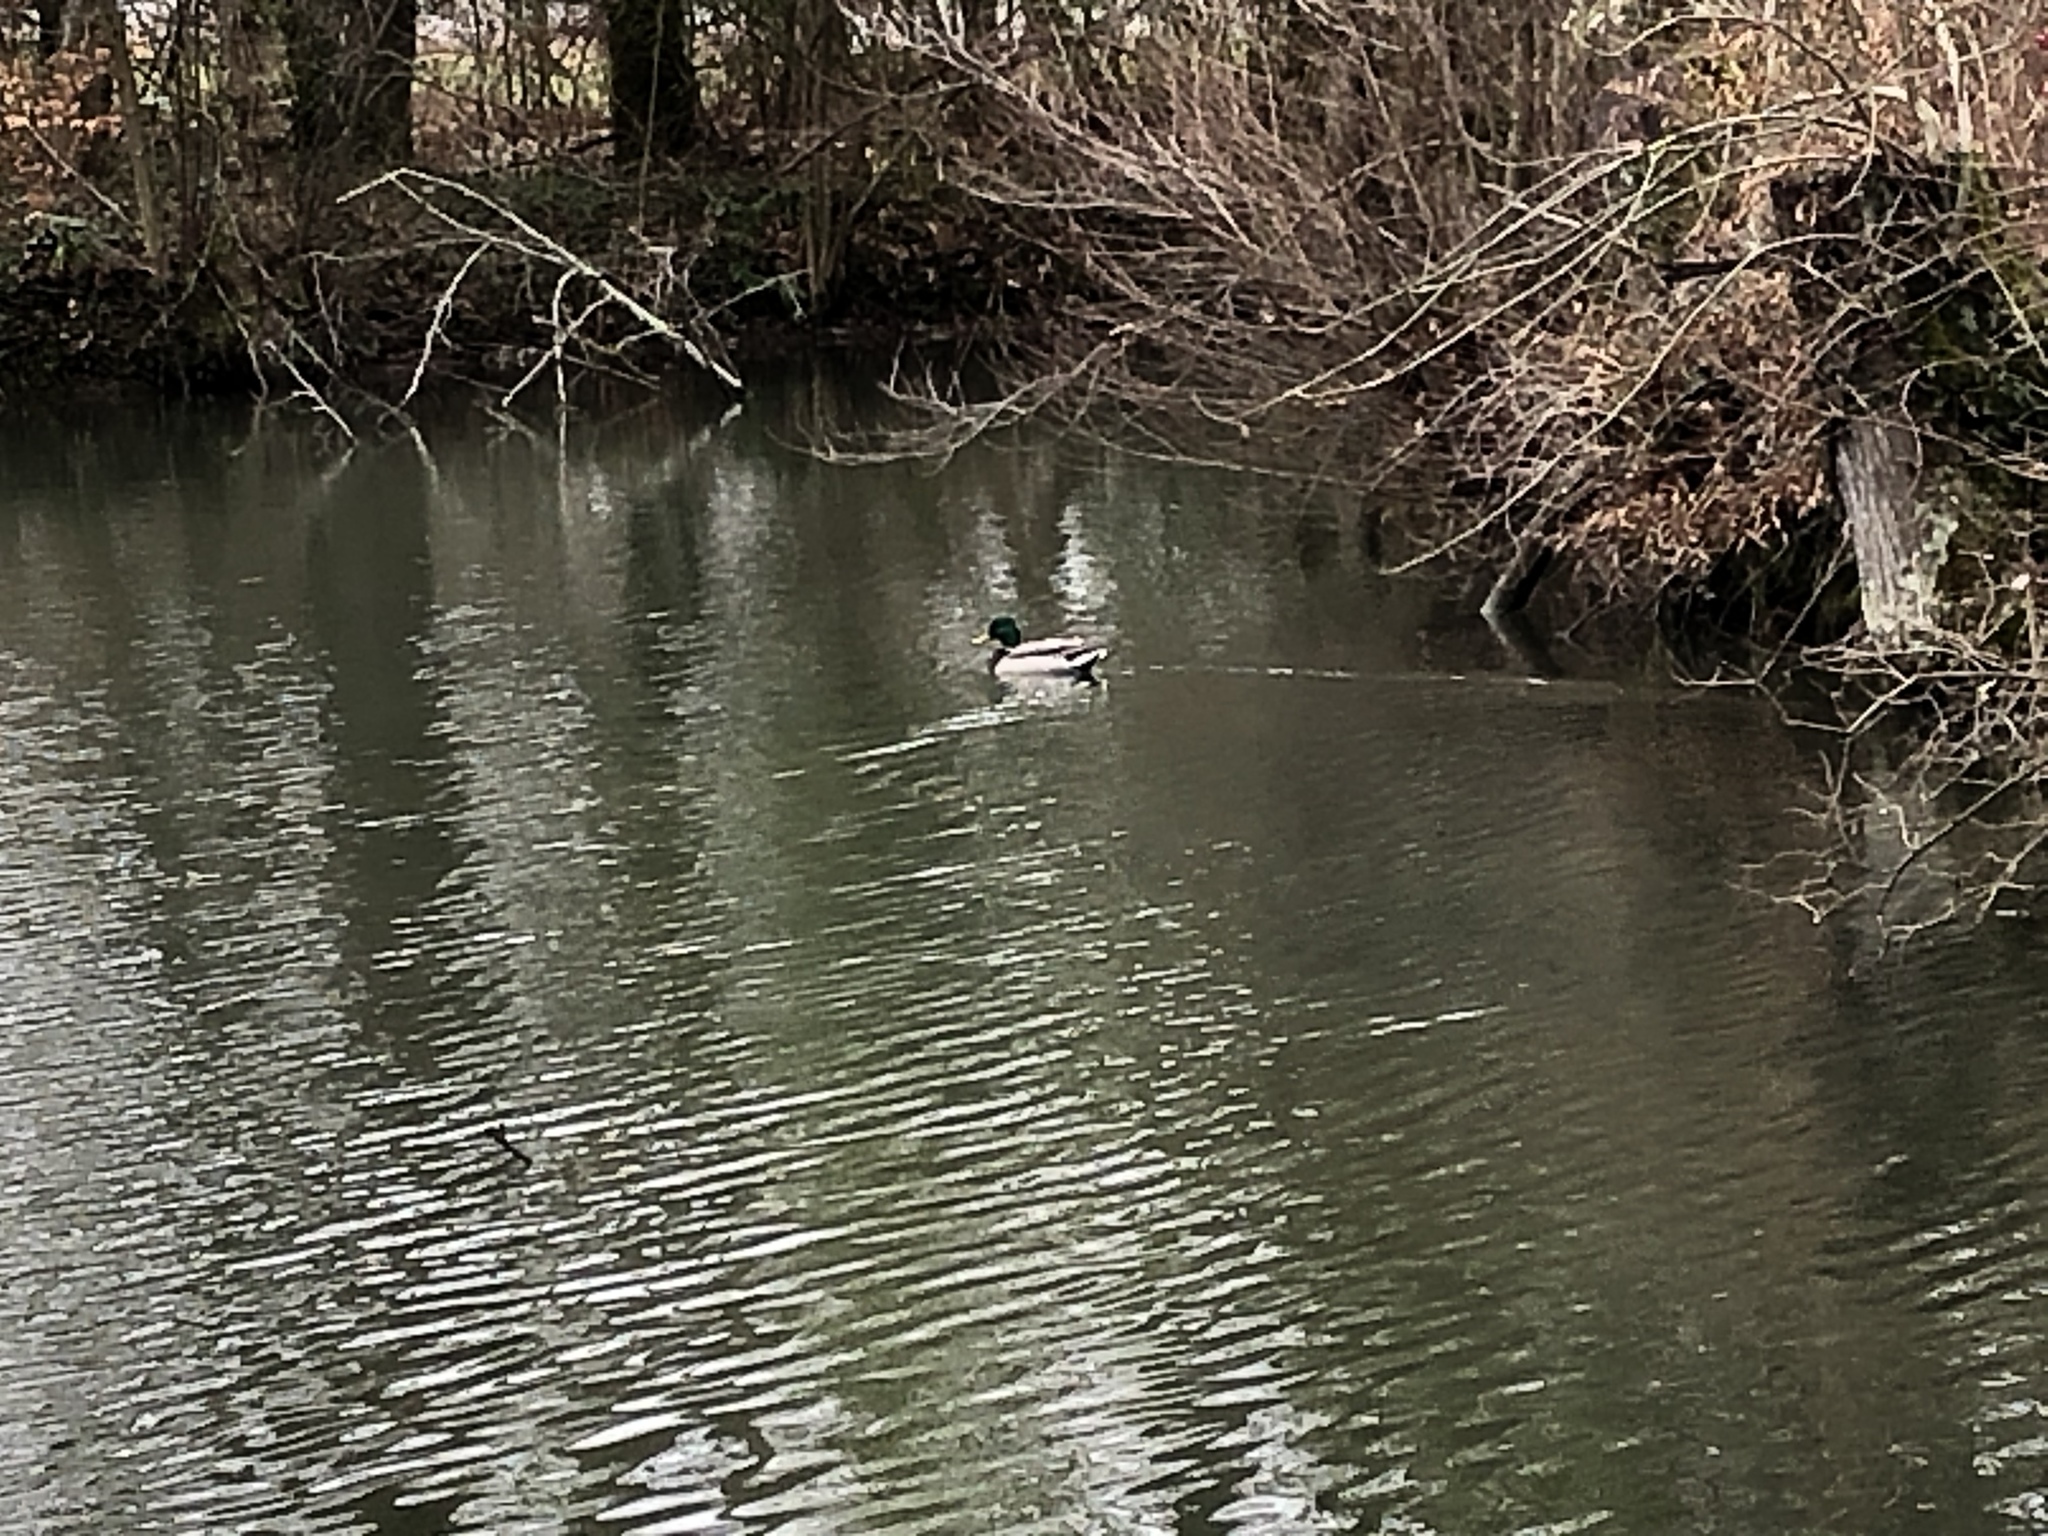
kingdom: Animalia
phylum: Chordata
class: Aves
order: Anseriformes
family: Anatidae
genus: Anas
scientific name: Anas platyrhynchos
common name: Mallard
